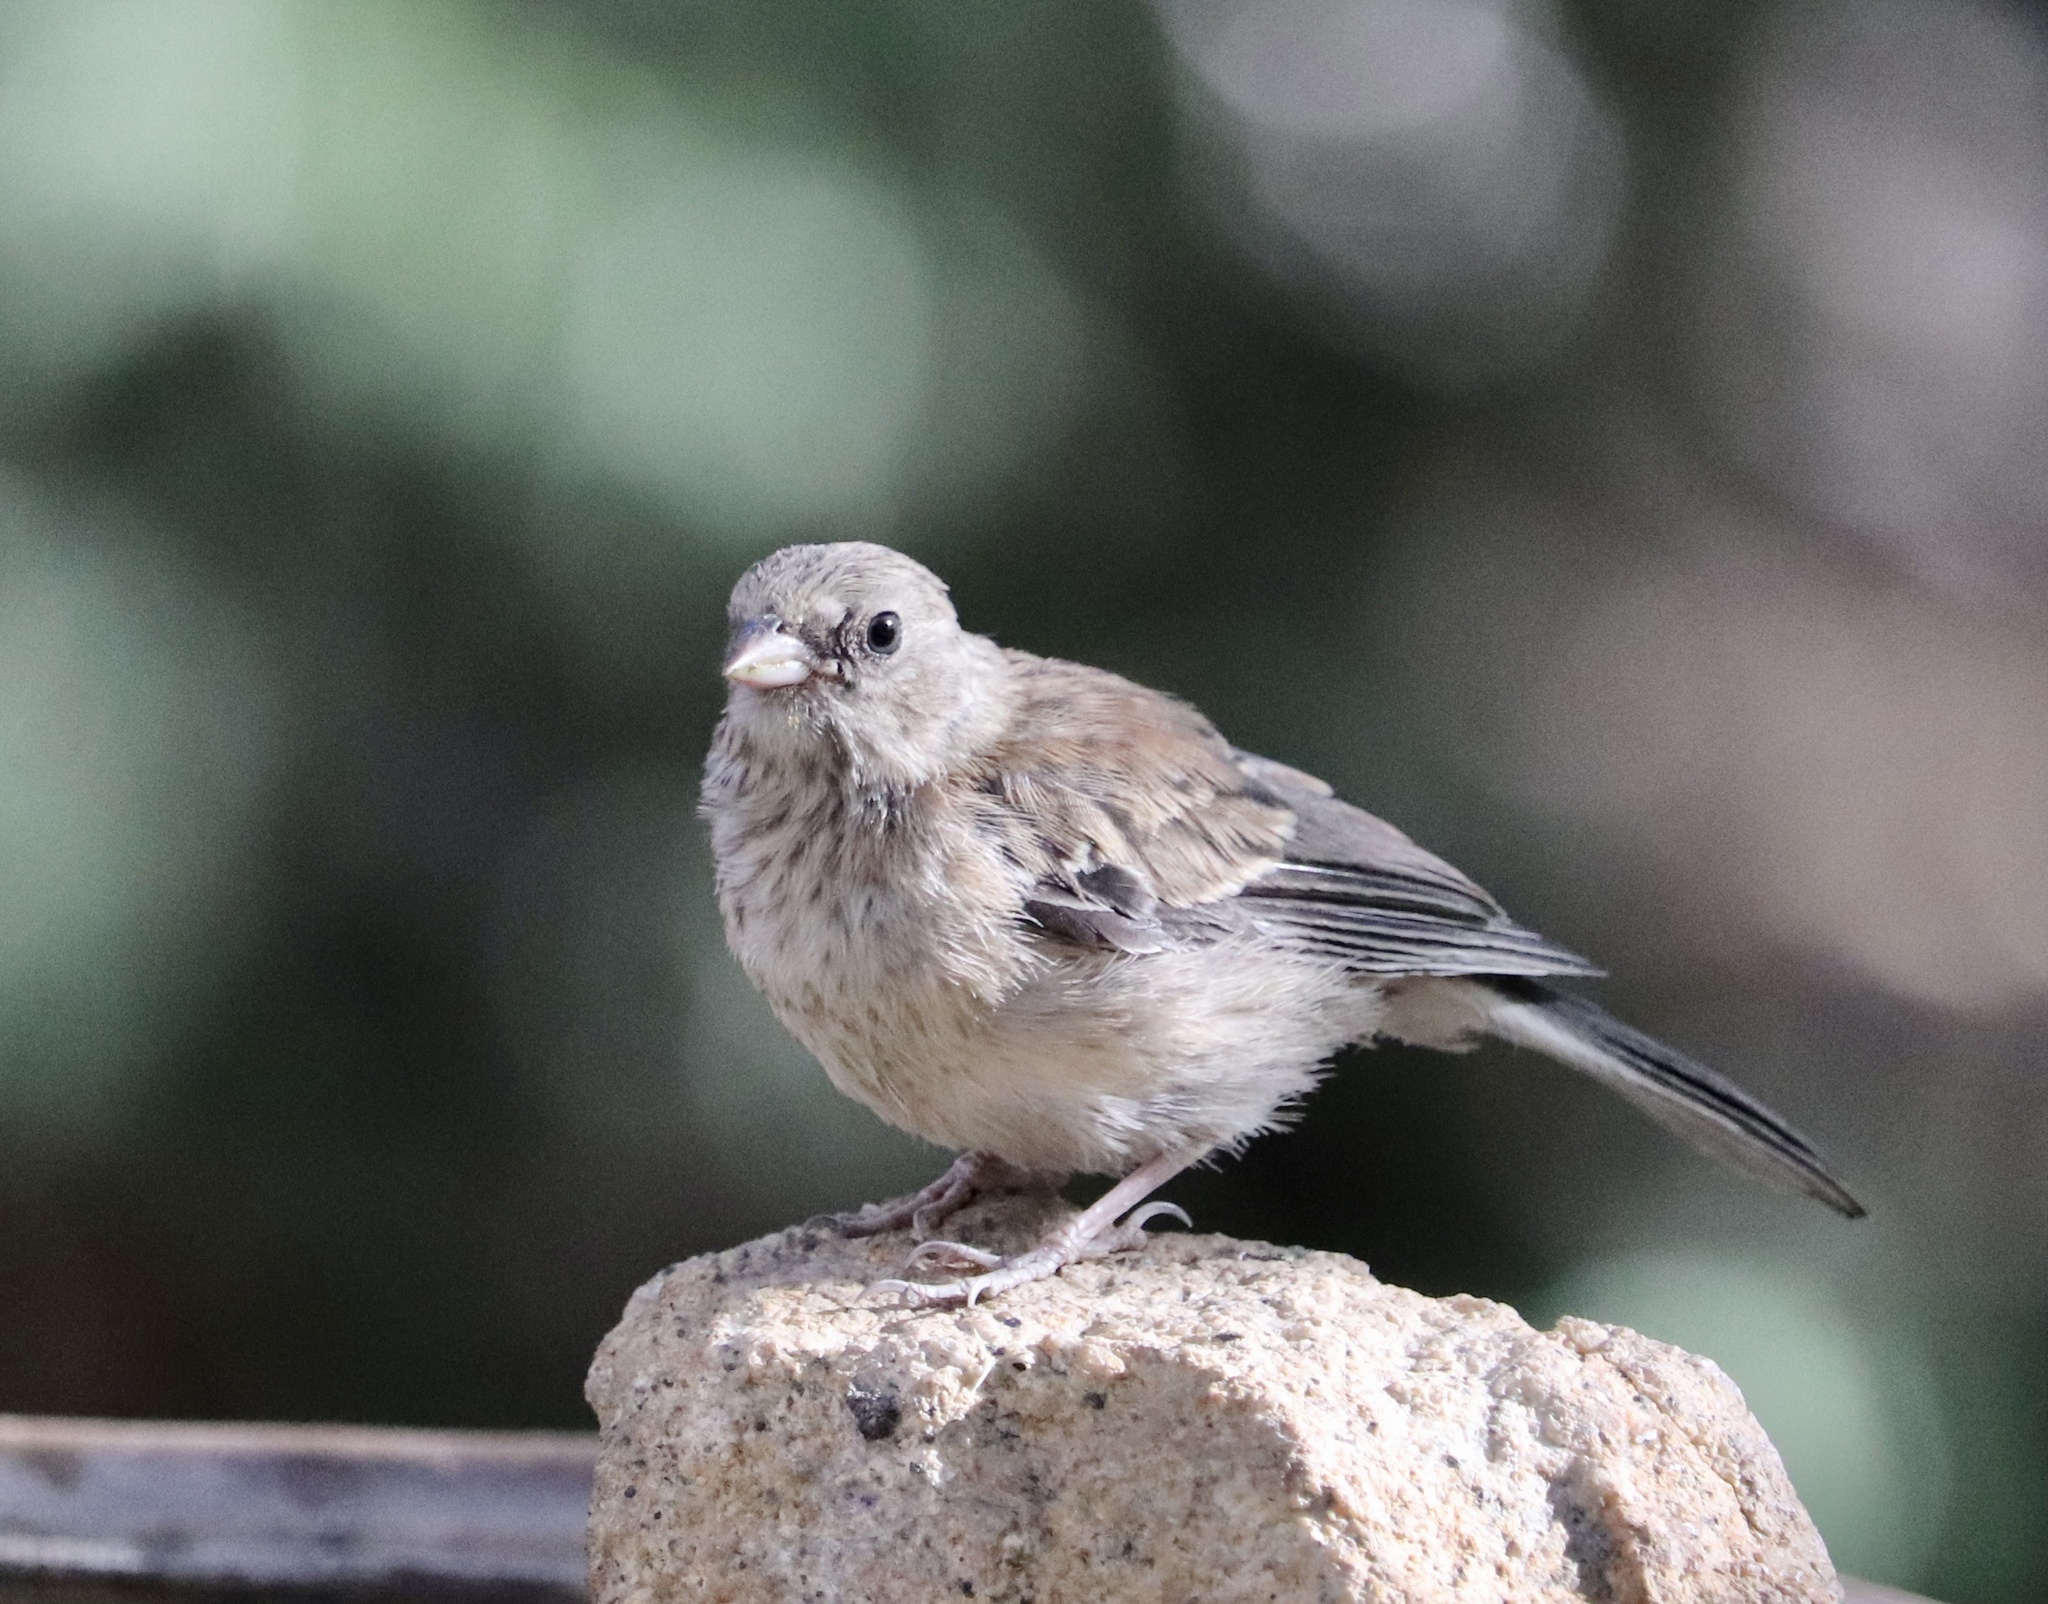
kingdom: Animalia
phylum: Chordata
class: Aves
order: Passeriformes
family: Passerellidae
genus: Junco
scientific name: Junco hyemalis
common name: Dark-eyed junco
